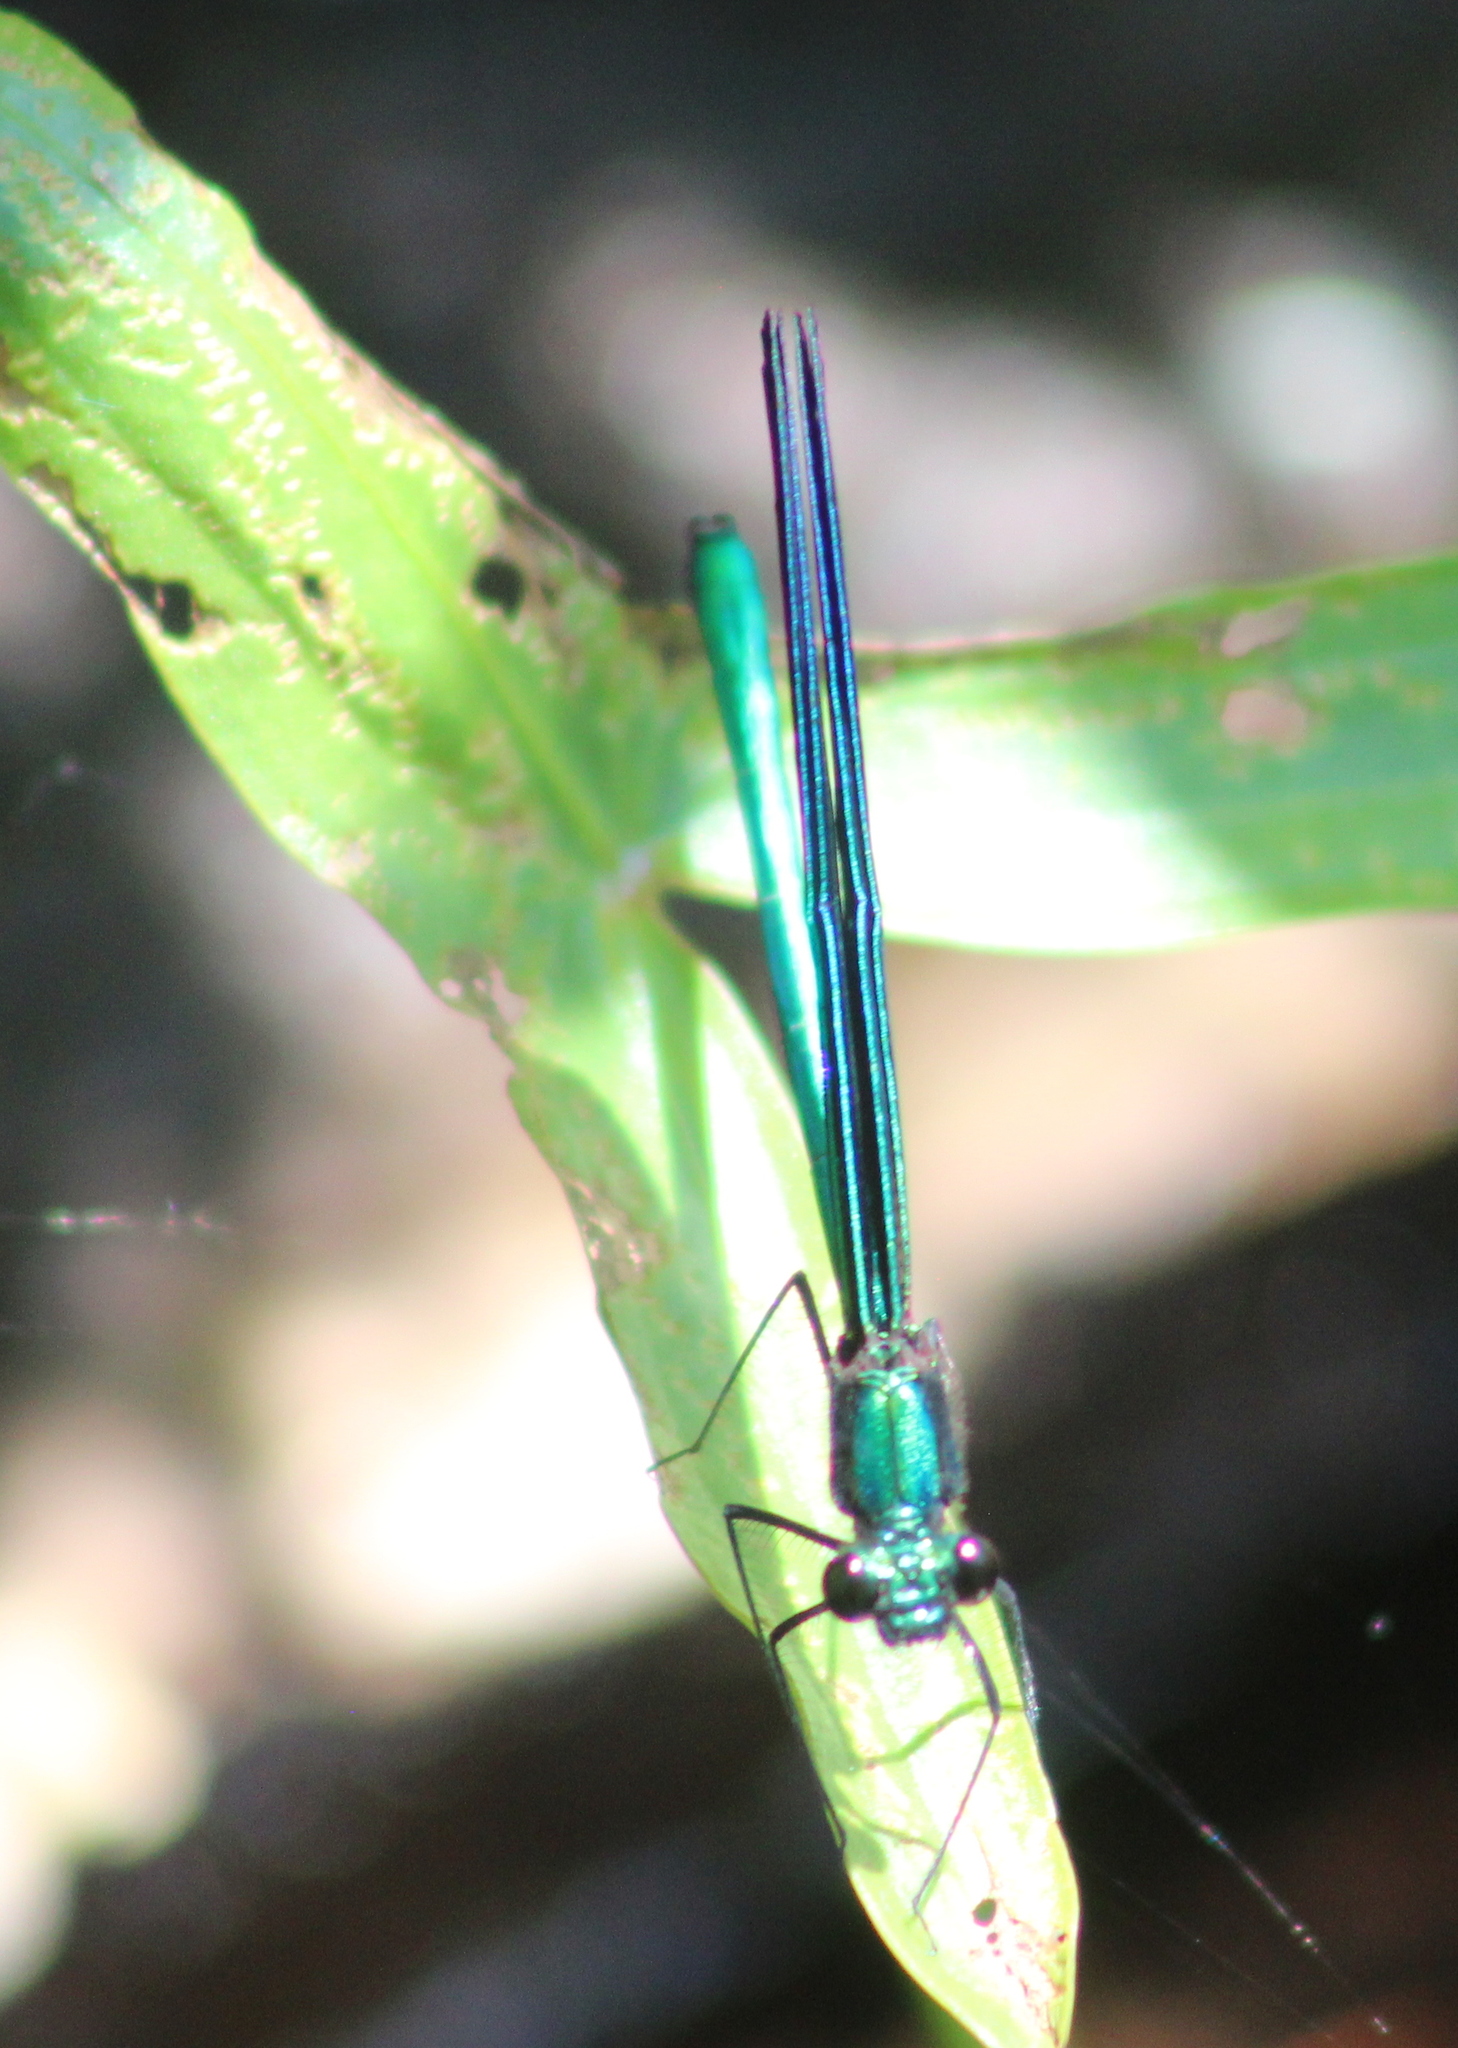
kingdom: Animalia
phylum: Arthropoda
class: Insecta
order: Odonata
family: Calopterygidae
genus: Calopteryx
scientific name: Calopteryx maculata
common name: Ebony jewelwing
